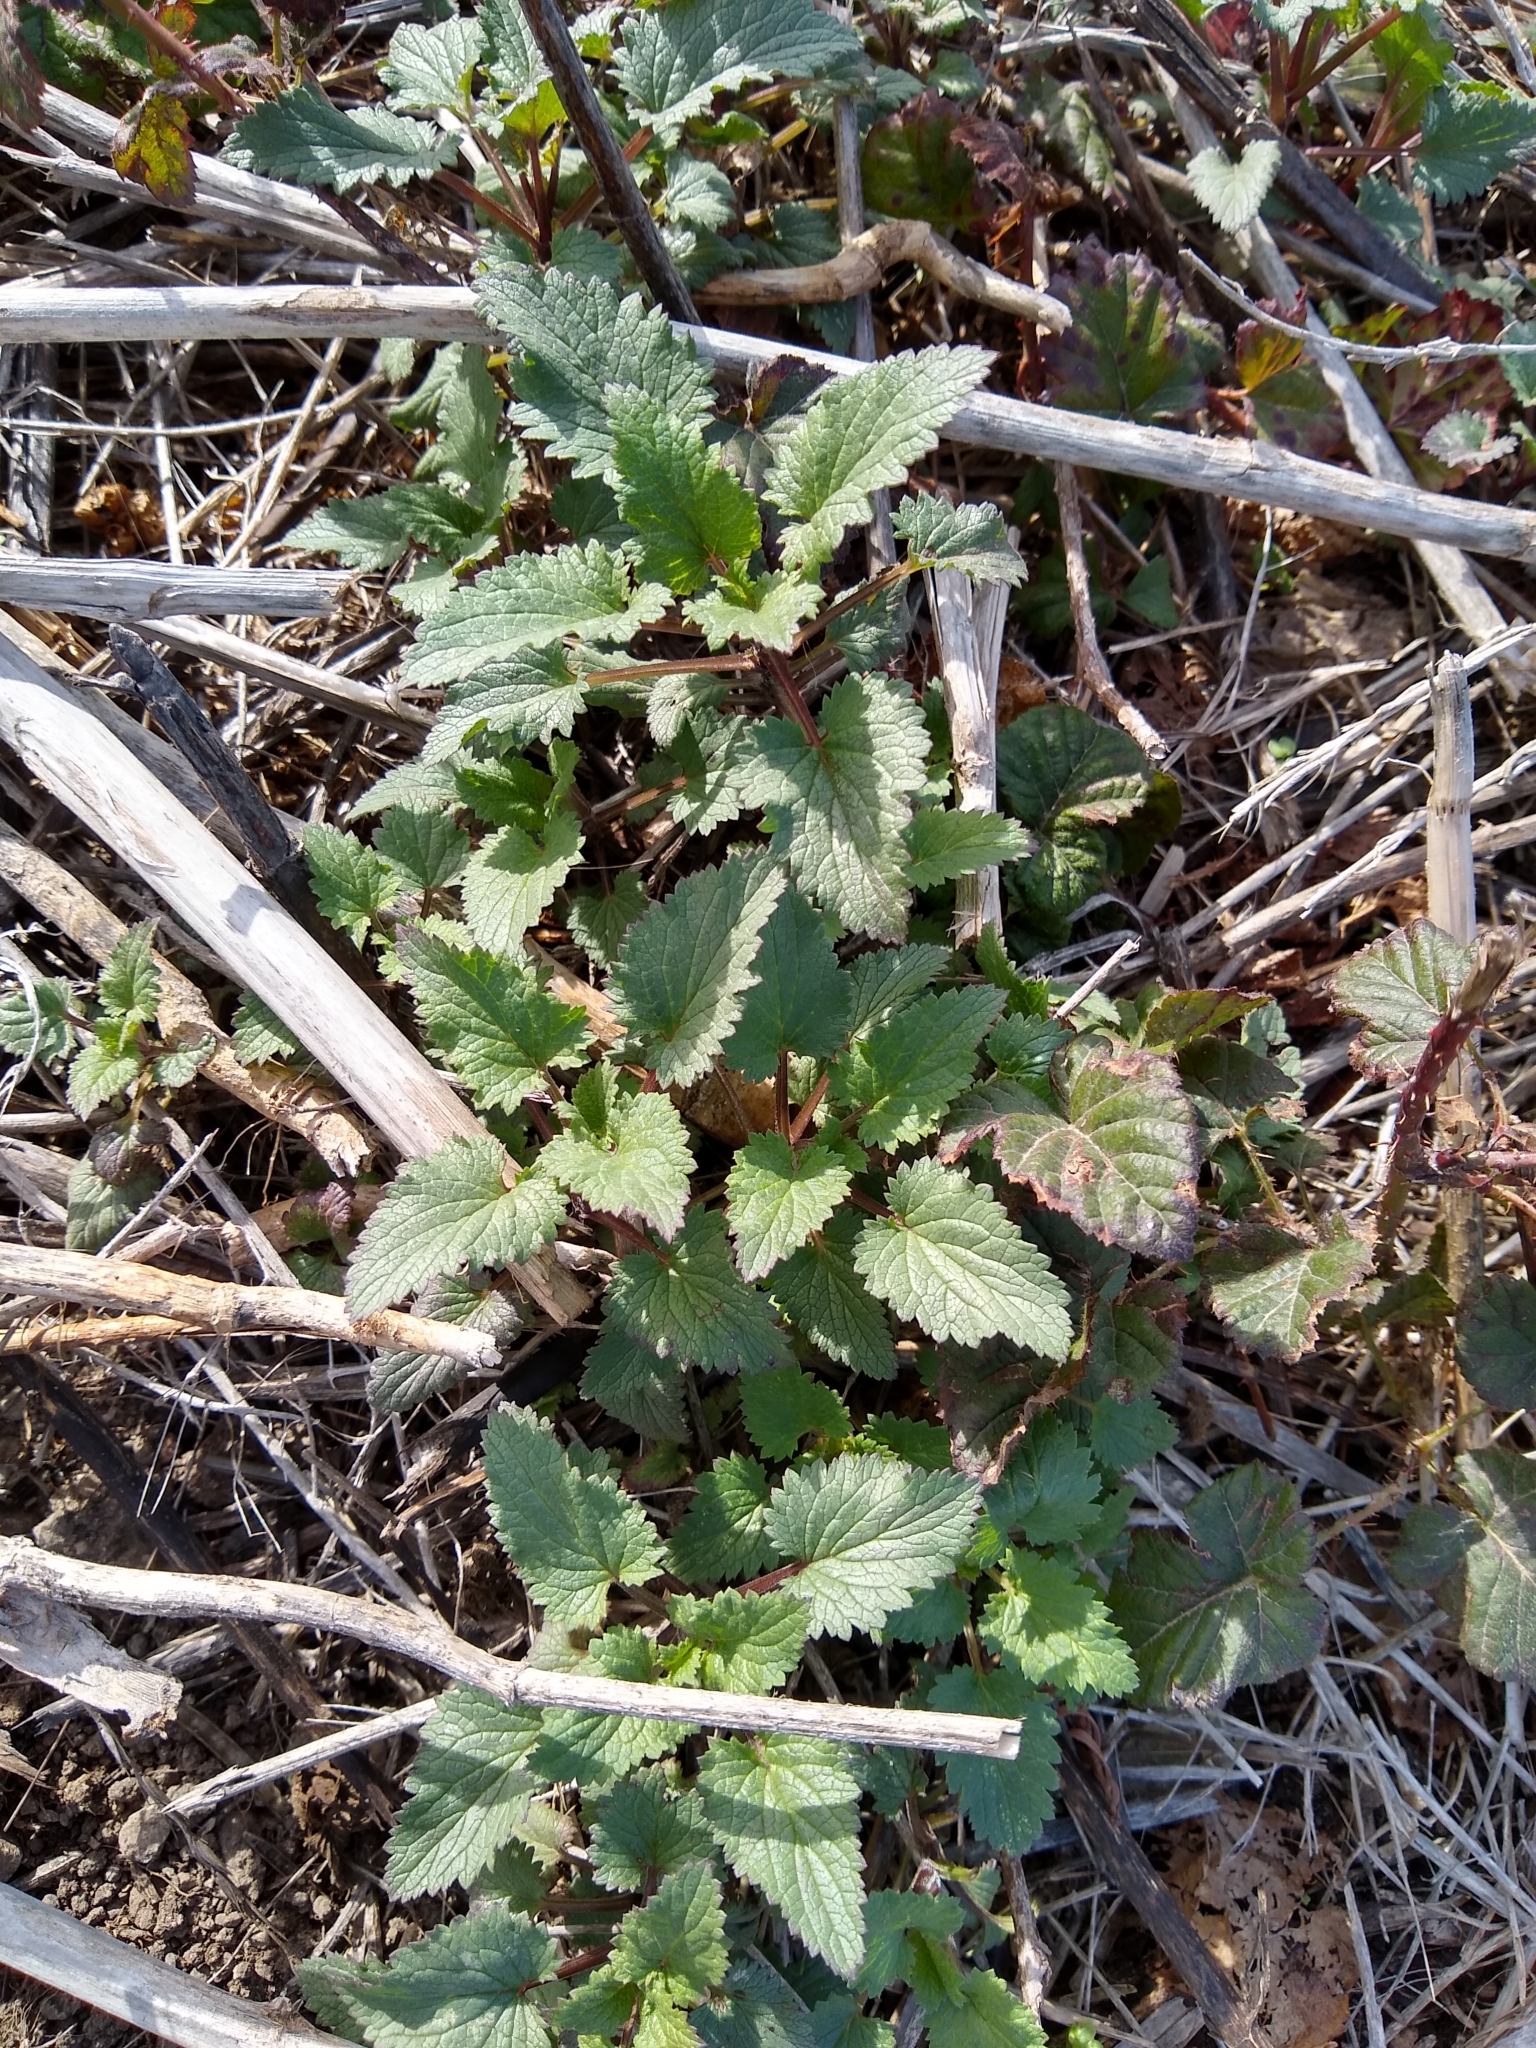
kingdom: Plantae
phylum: Tracheophyta
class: Magnoliopsida
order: Lamiales
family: Scrophulariaceae
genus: Scrophularia
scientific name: Scrophularia californica
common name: California figwort
